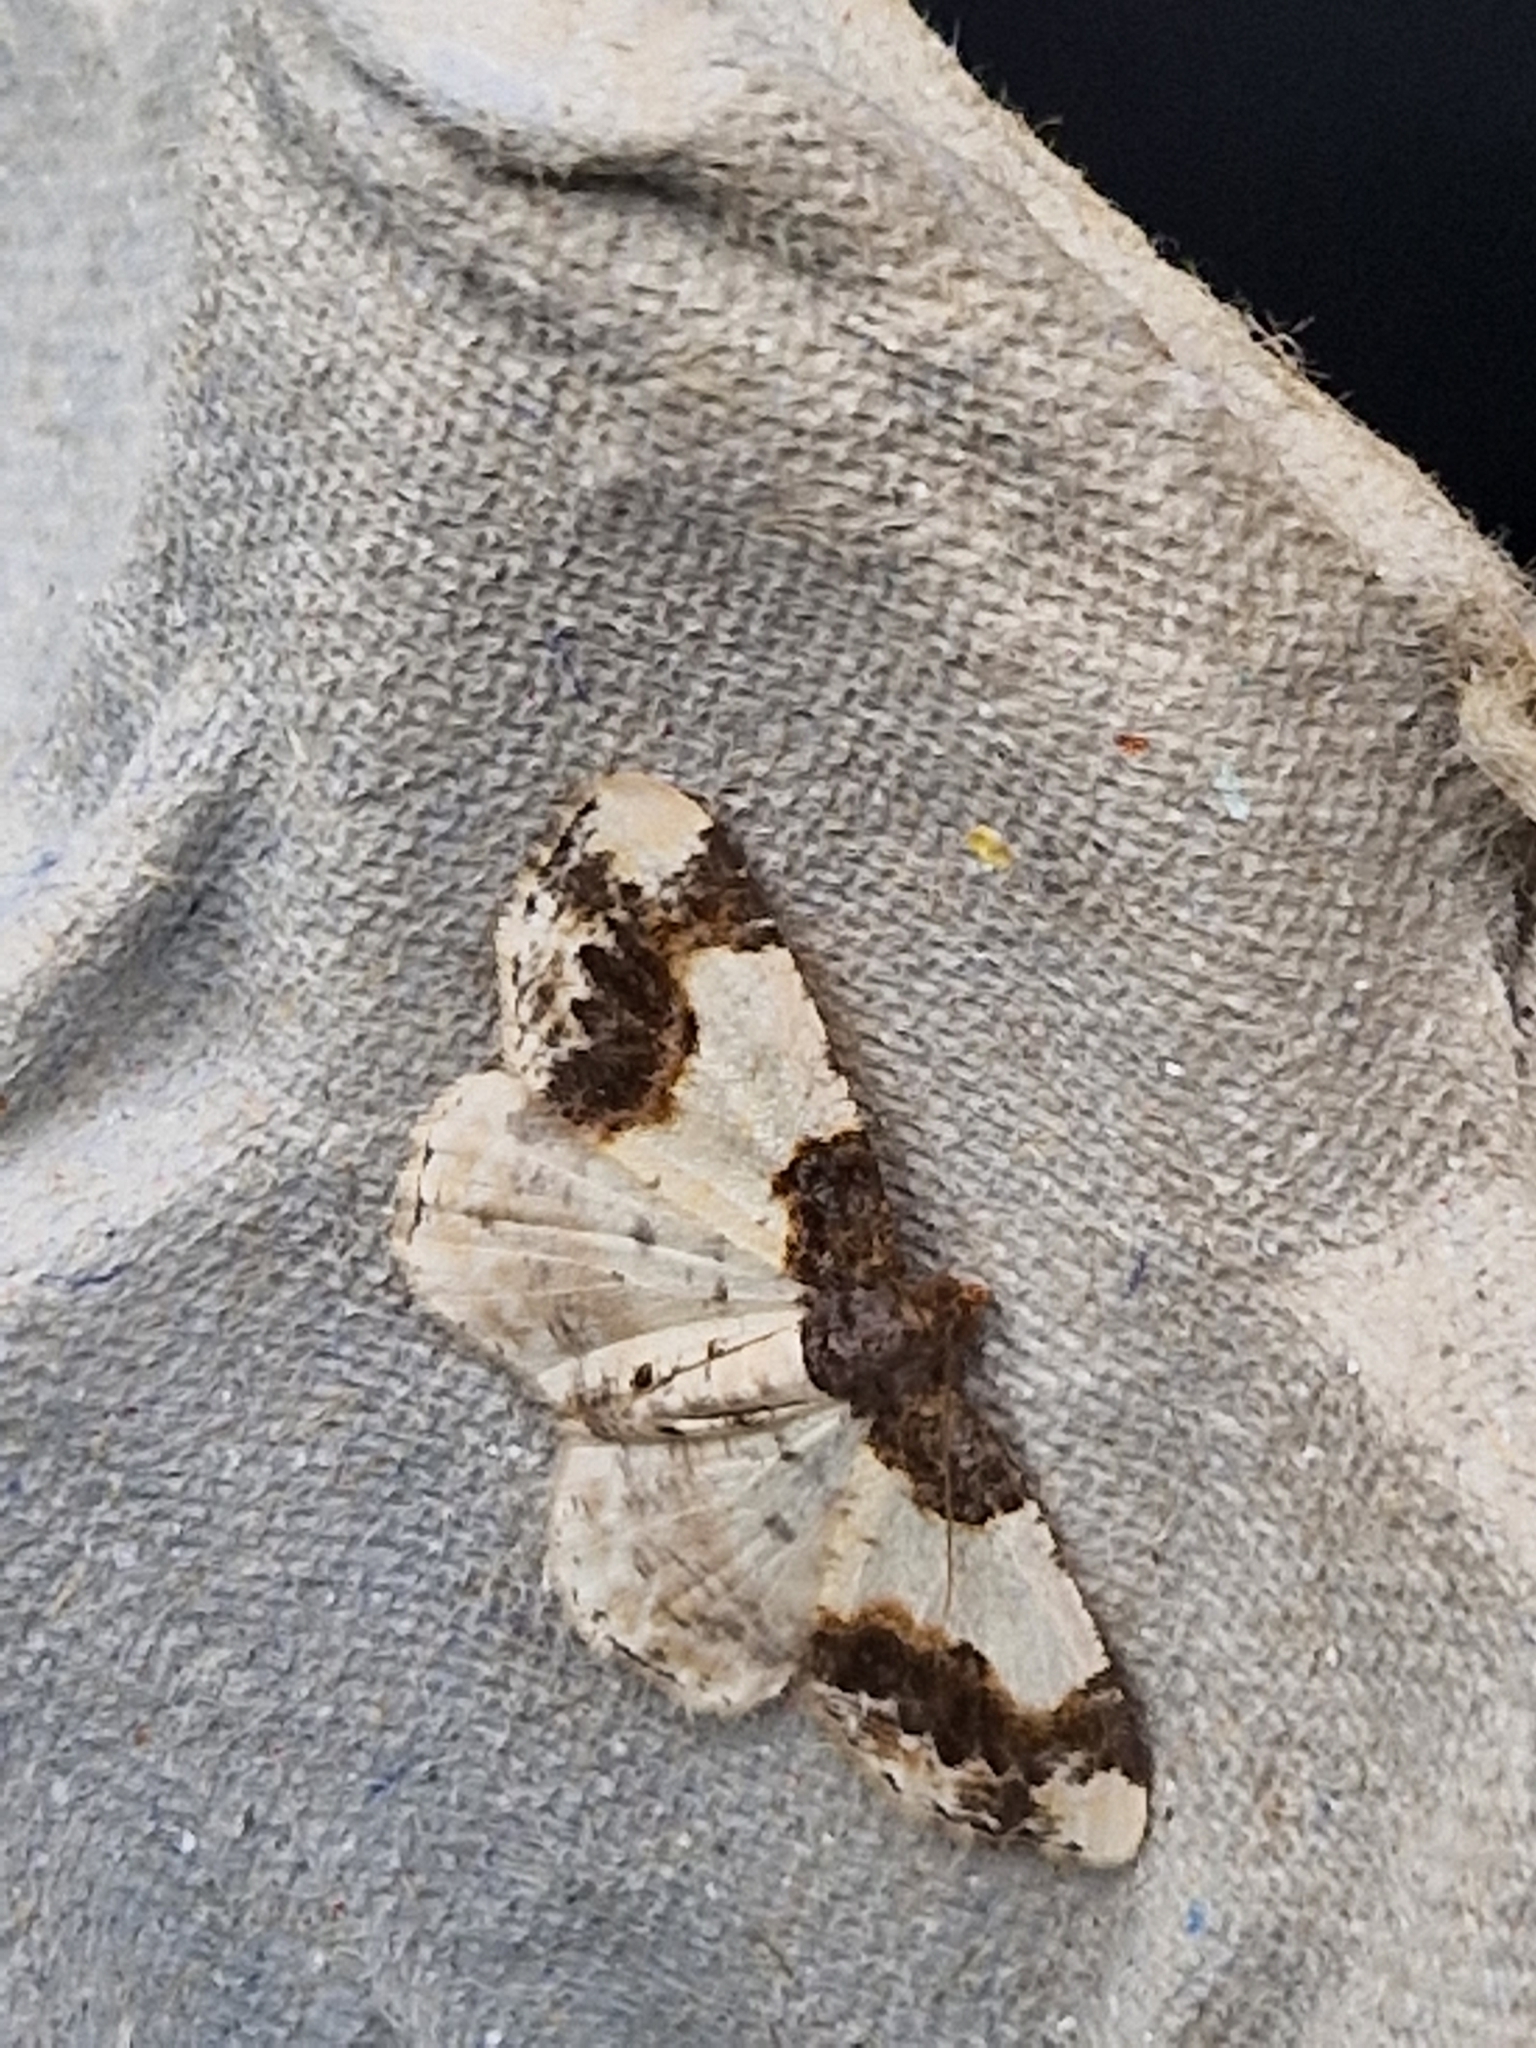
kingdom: Animalia
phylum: Arthropoda
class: Insecta
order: Lepidoptera
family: Geometridae
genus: Ligdia
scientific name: Ligdia adustata
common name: Scorched carpet
